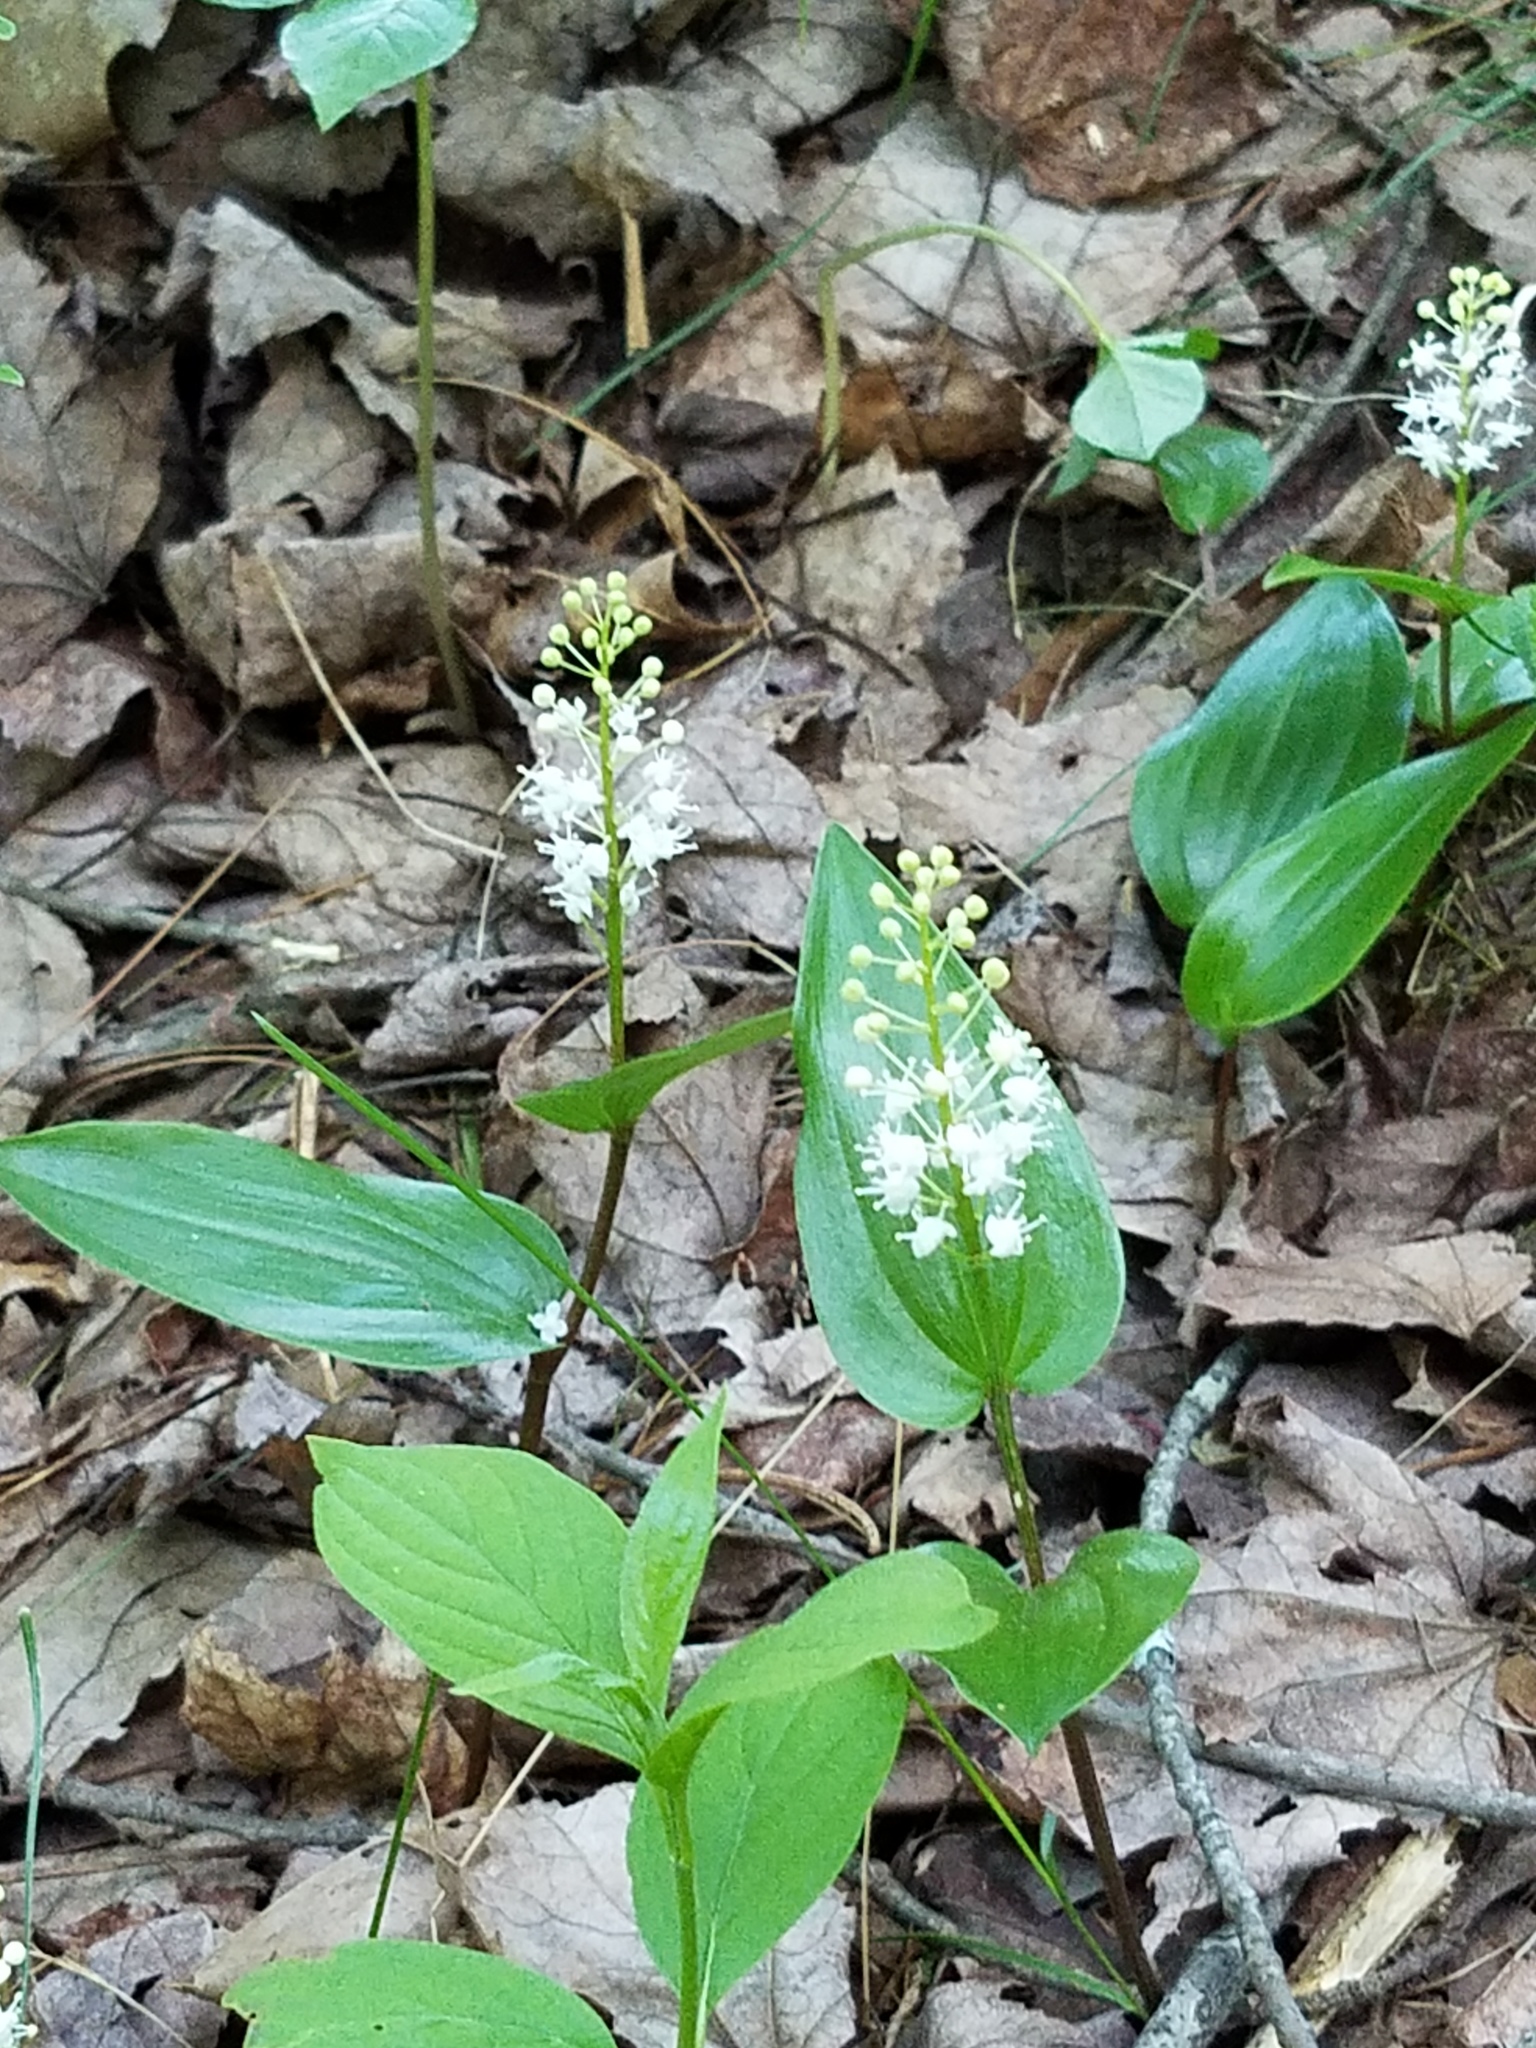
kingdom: Plantae
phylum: Tracheophyta
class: Liliopsida
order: Asparagales
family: Asparagaceae
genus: Maianthemum
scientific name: Maianthemum canadense
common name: False lily-of-the-valley
